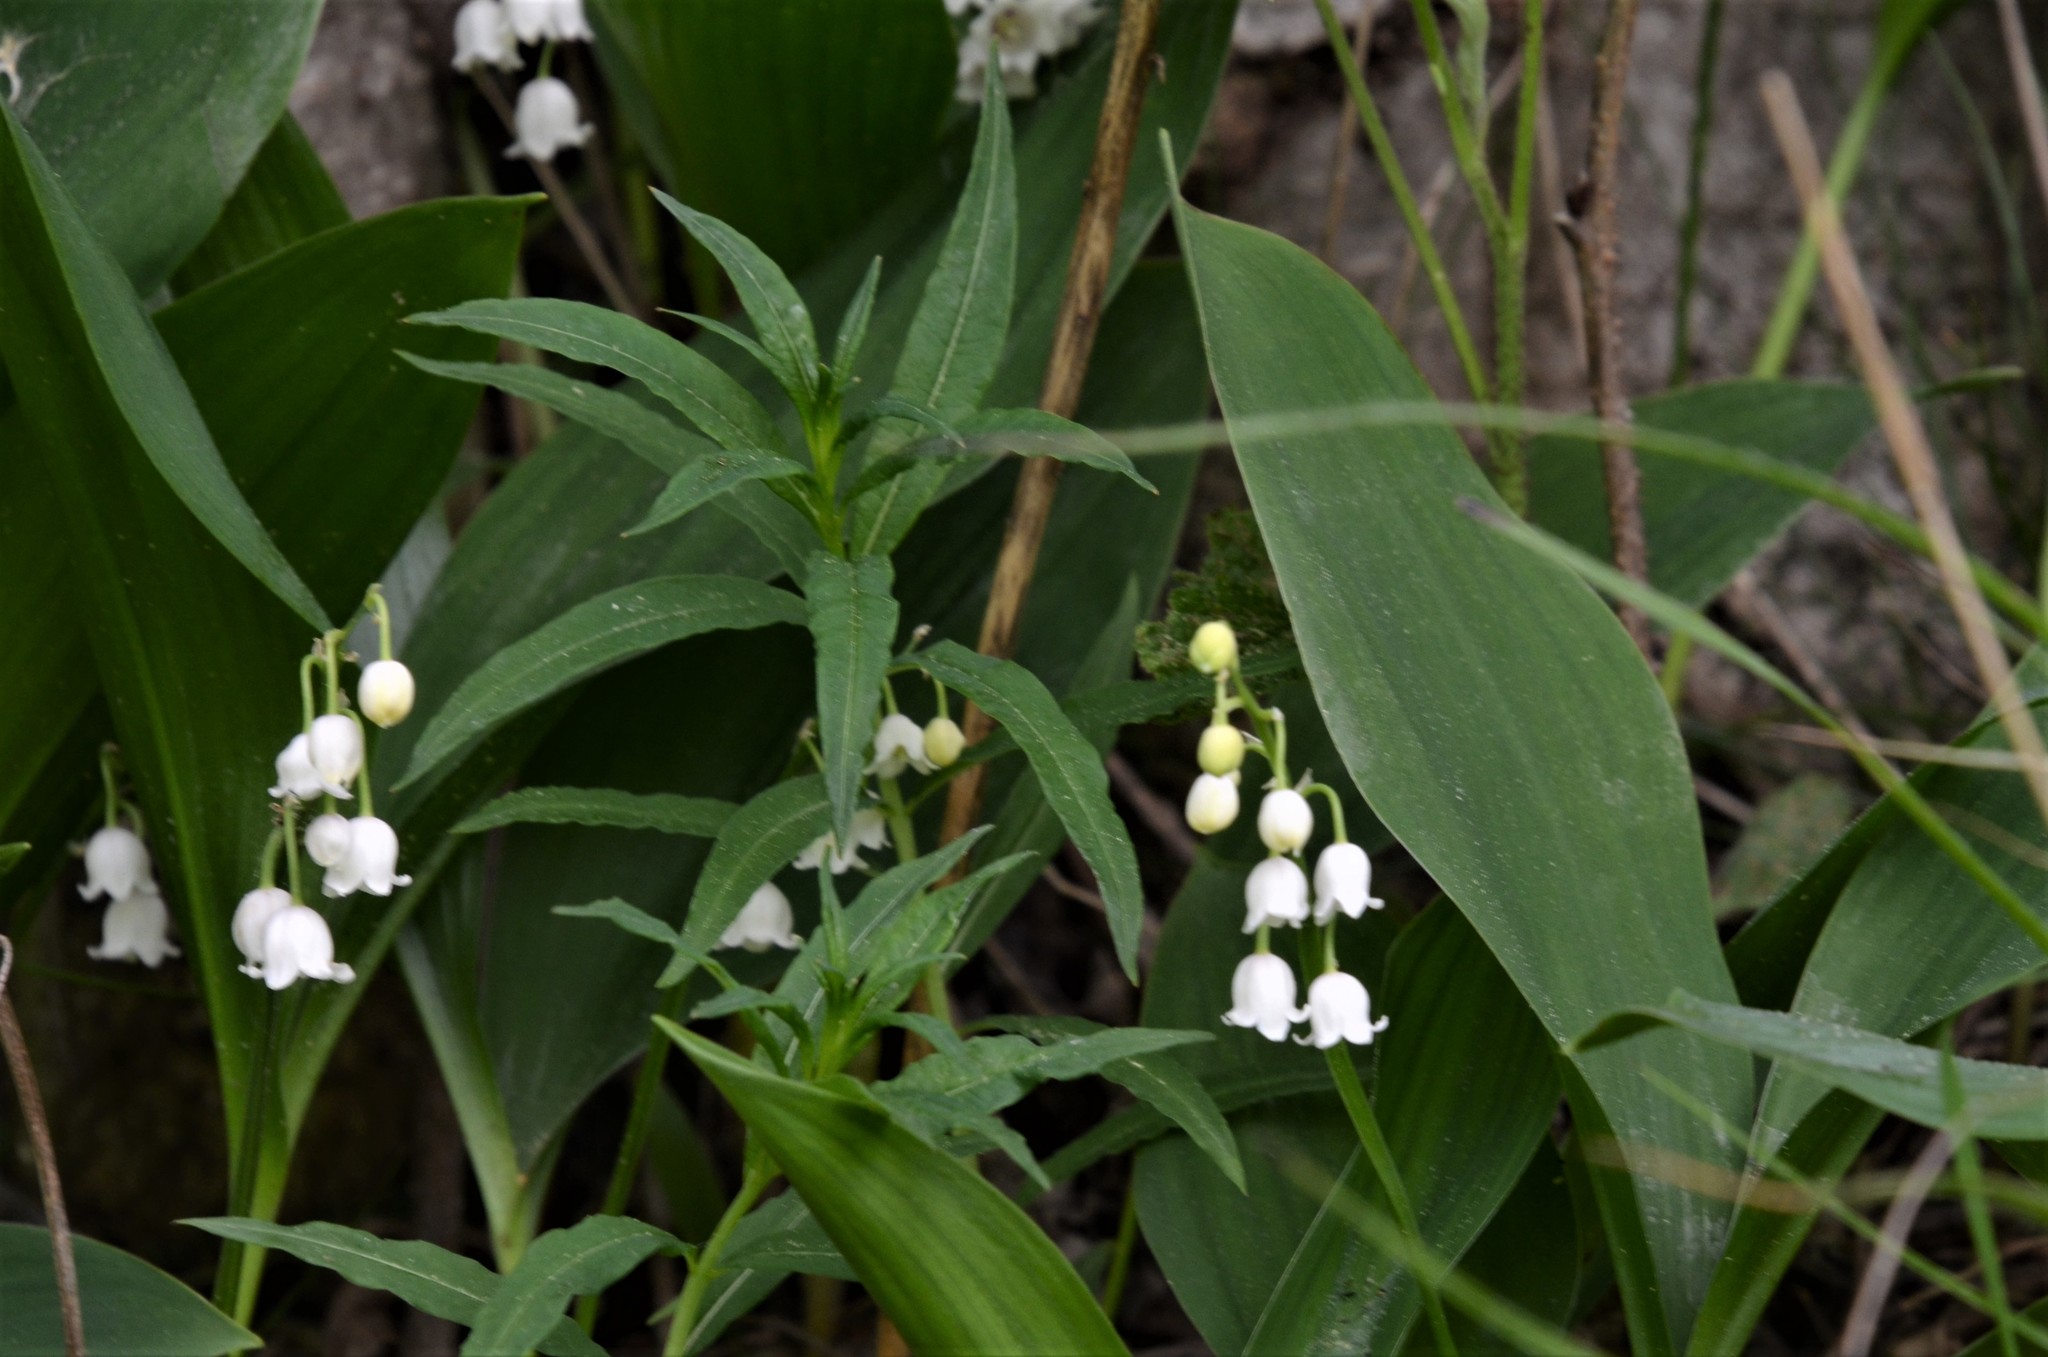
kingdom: Plantae
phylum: Tracheophyta
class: Liliopsida
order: Asparagales
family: Asparagaceae
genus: Convallaria
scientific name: Convallaria majalis
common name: Lily-of-the-valley
